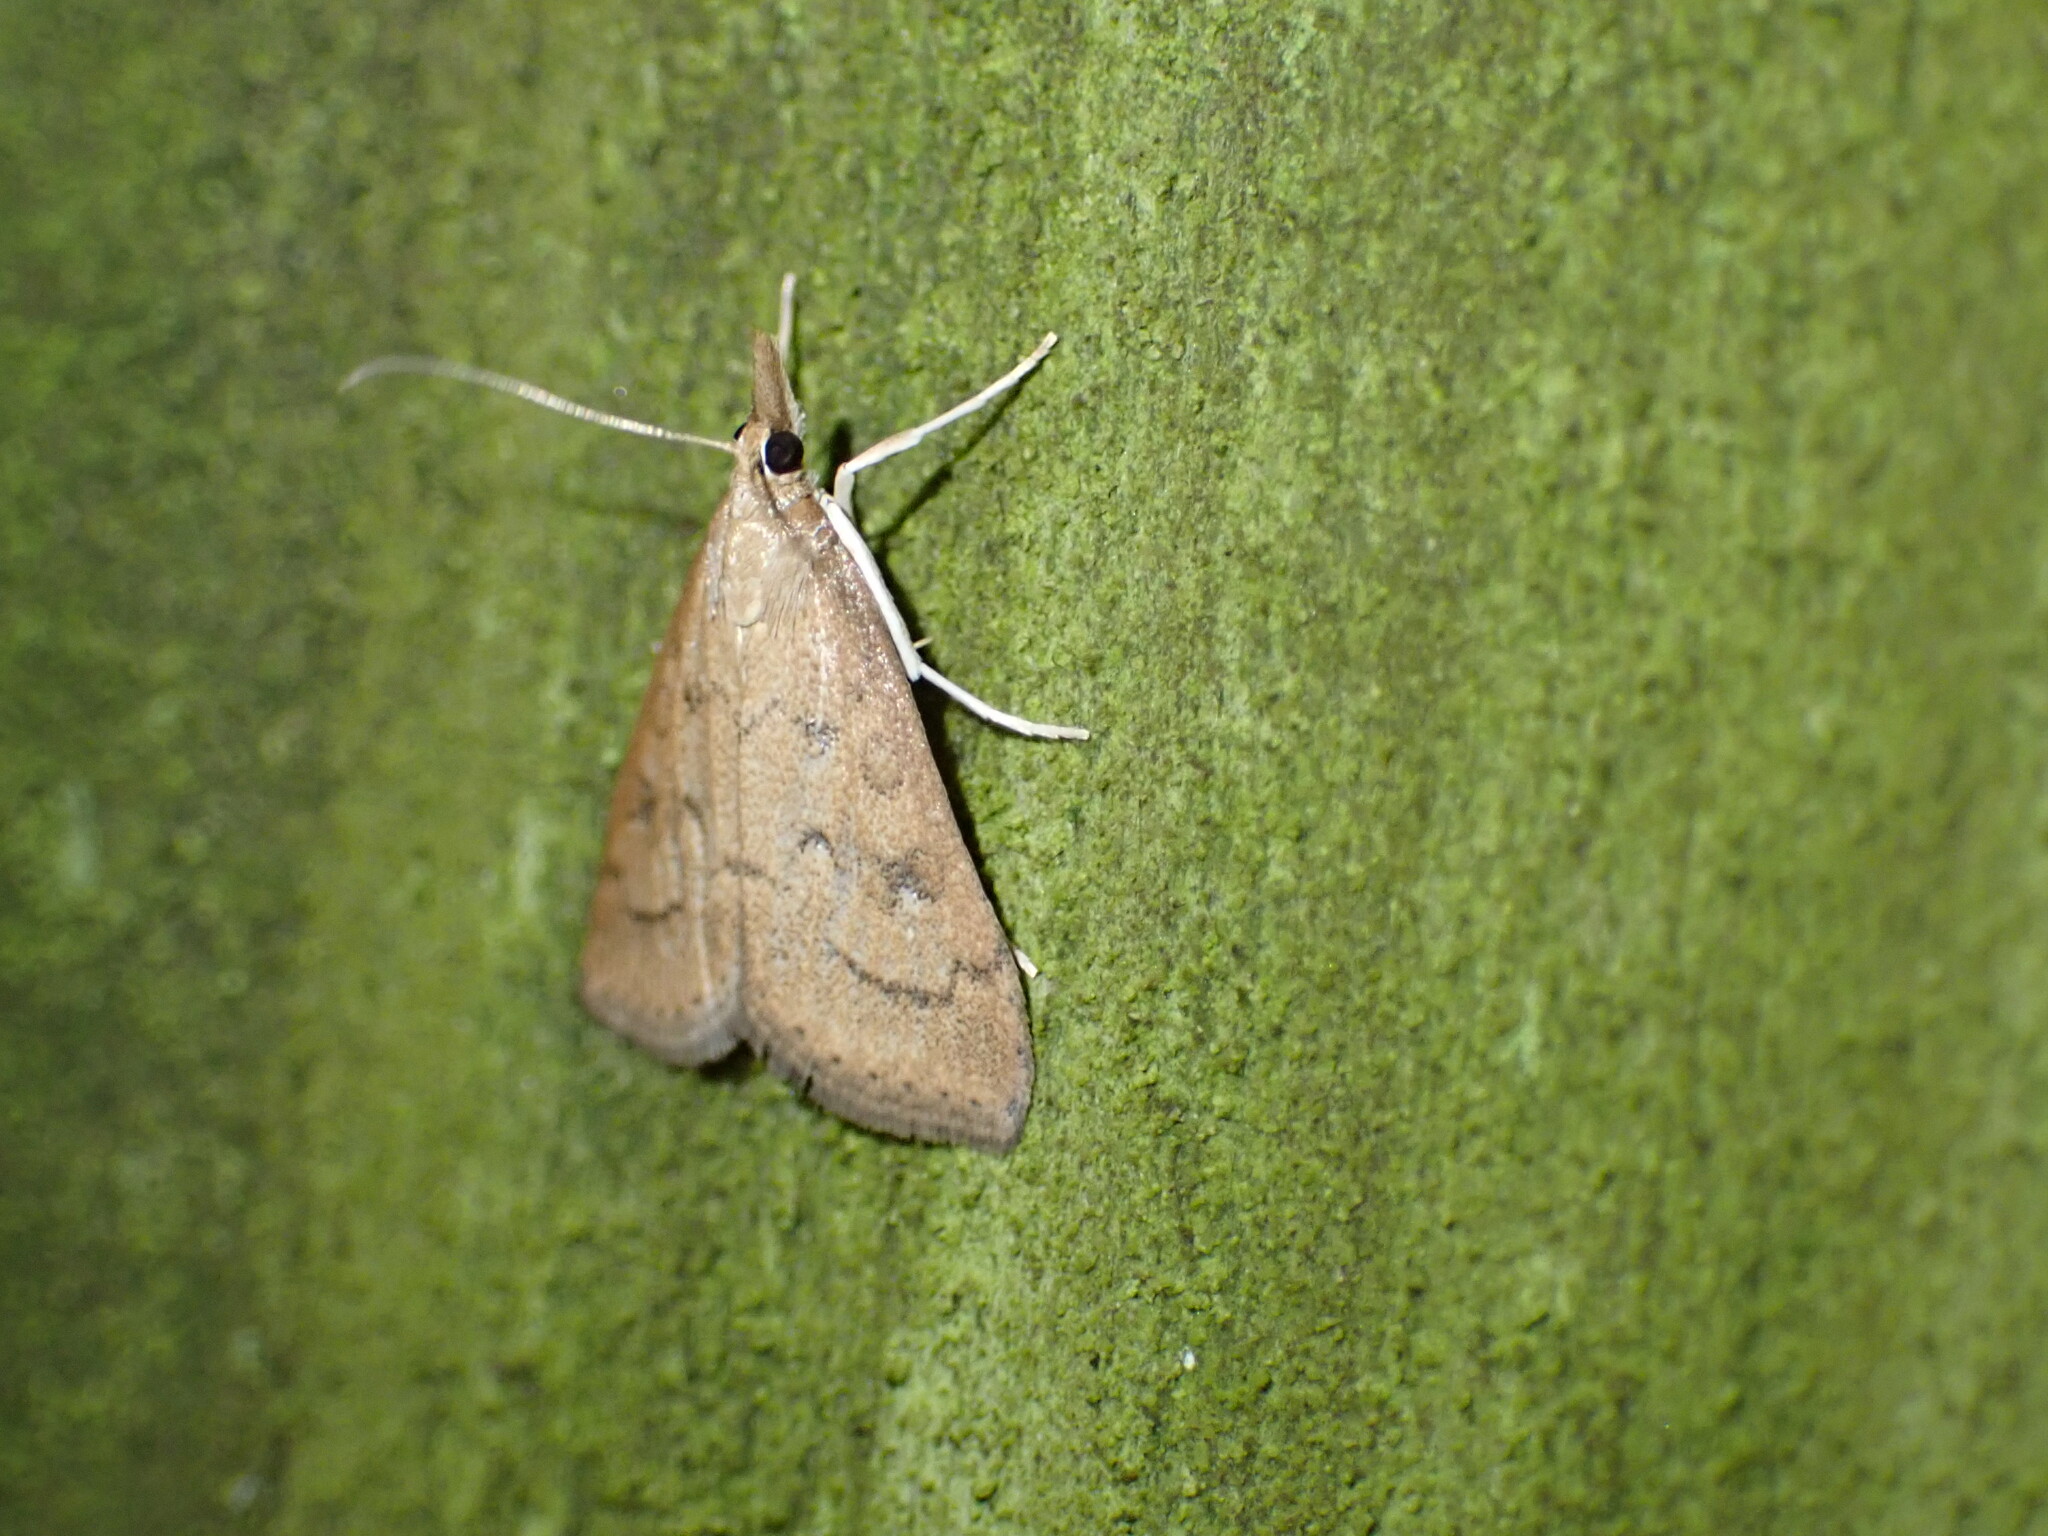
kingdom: Animalia
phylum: Arthropoda
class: Insecta
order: Lepidoptera
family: Crambidae
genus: Udea
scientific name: Udea rubigalis
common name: Celery leaftier moth
